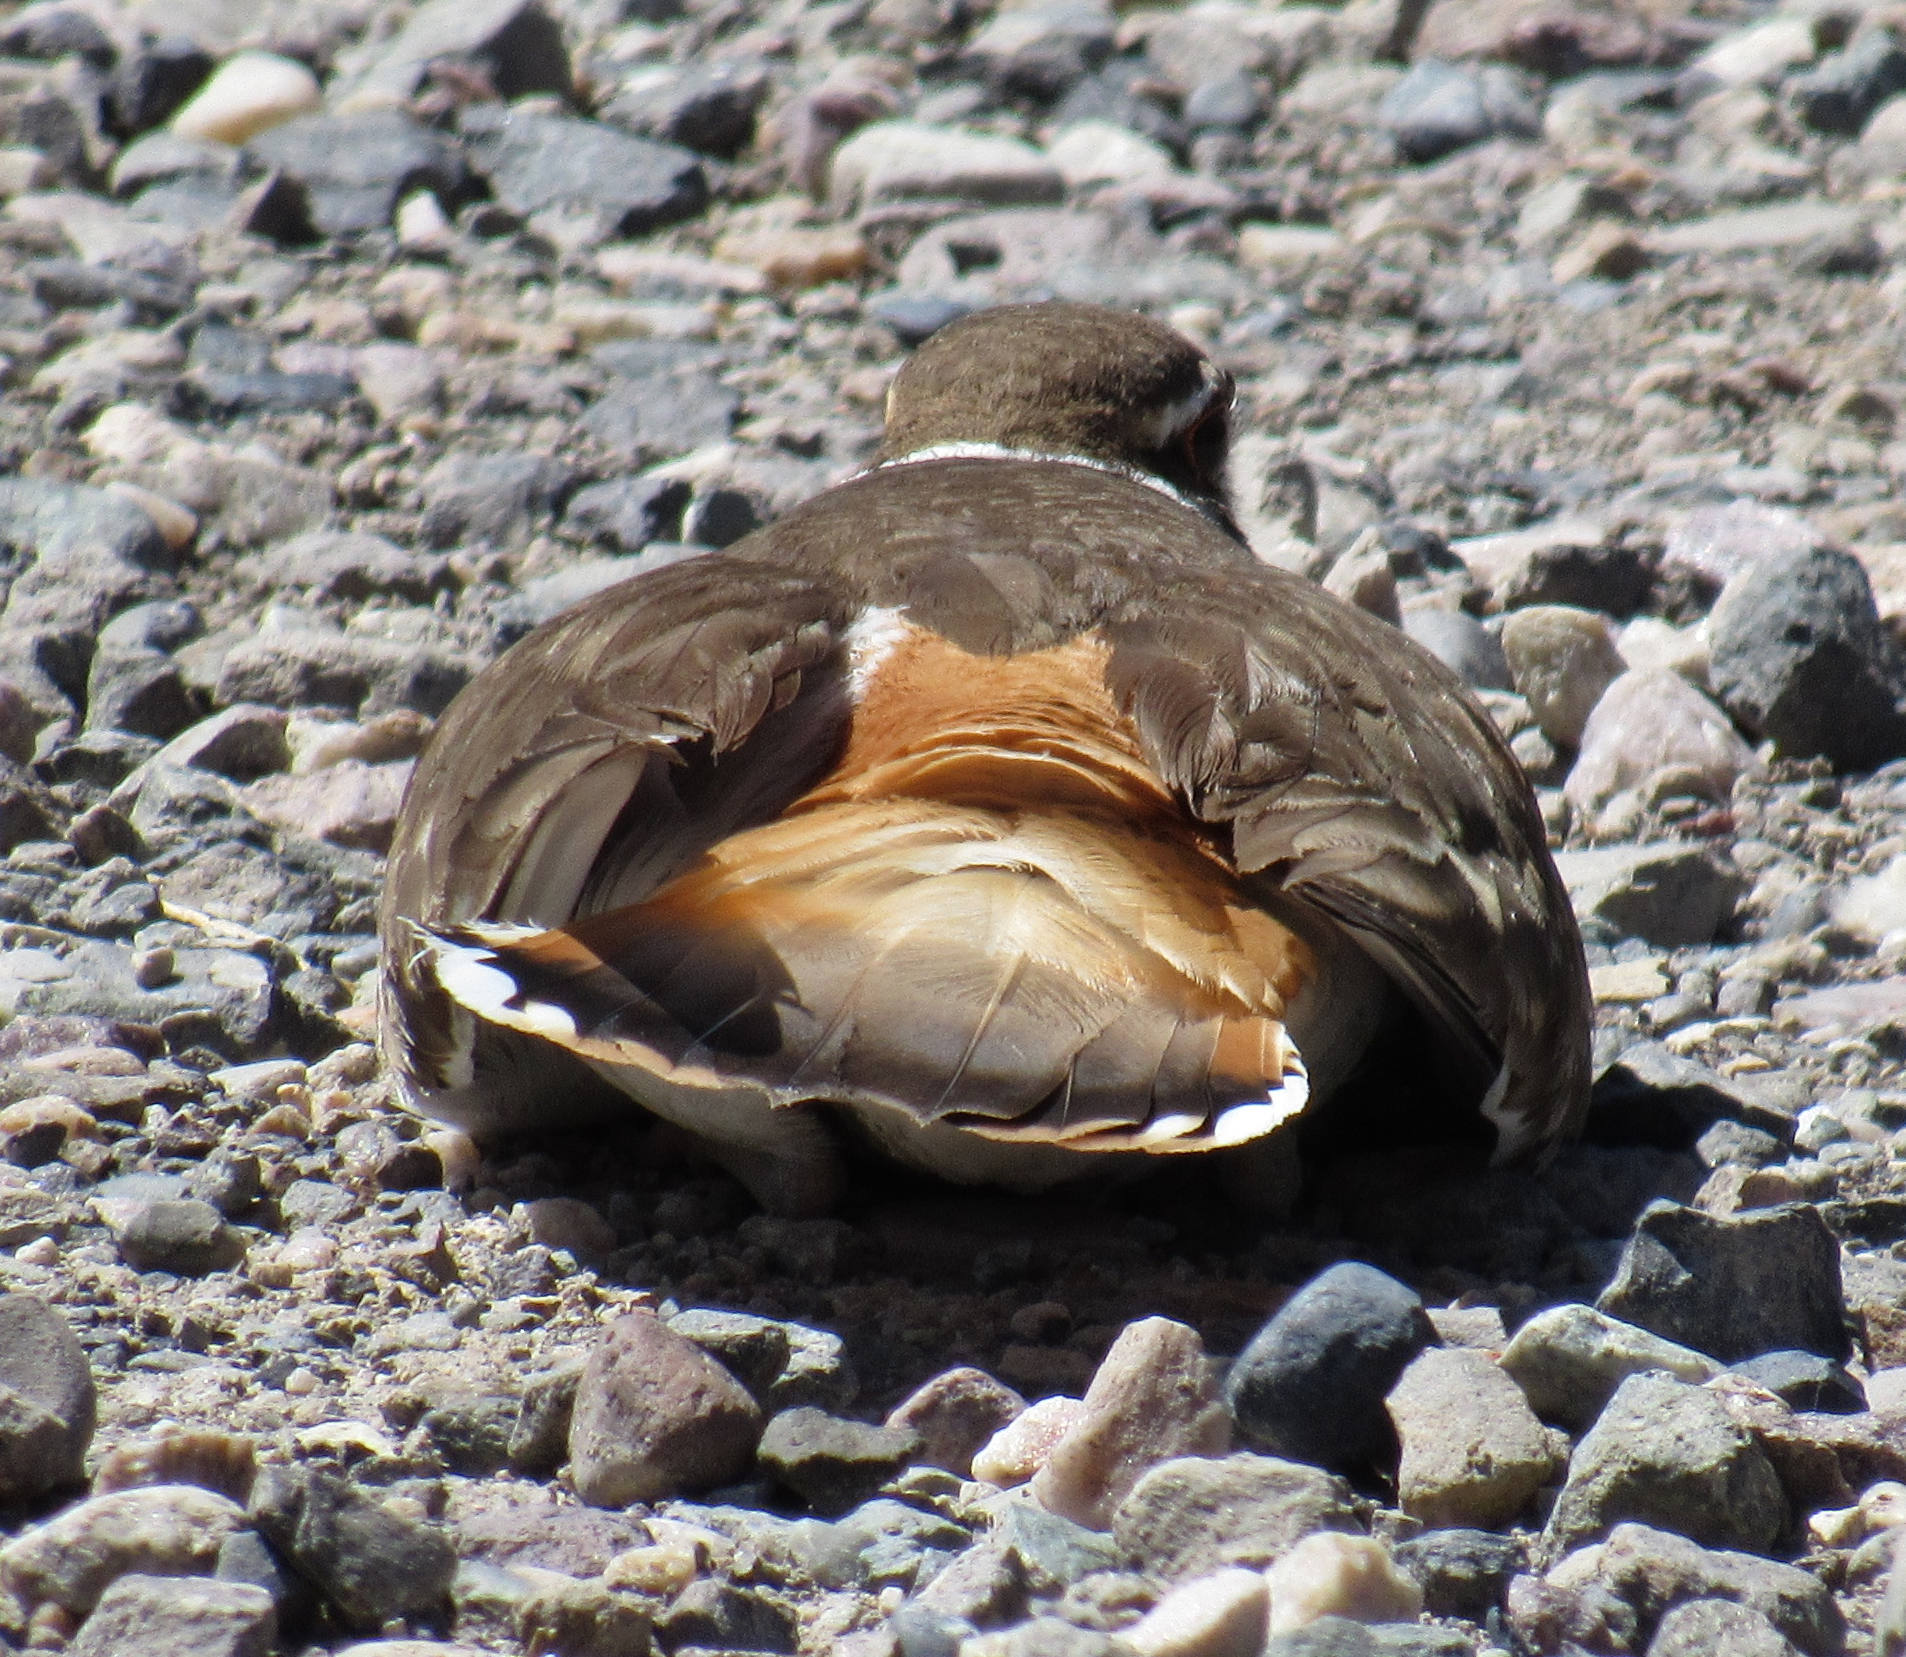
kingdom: Animalia
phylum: Chordata
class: Aves
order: Charadriiformes
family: Charadriidae
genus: Charadrius
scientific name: Charadrius vociferus
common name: Killdeer
